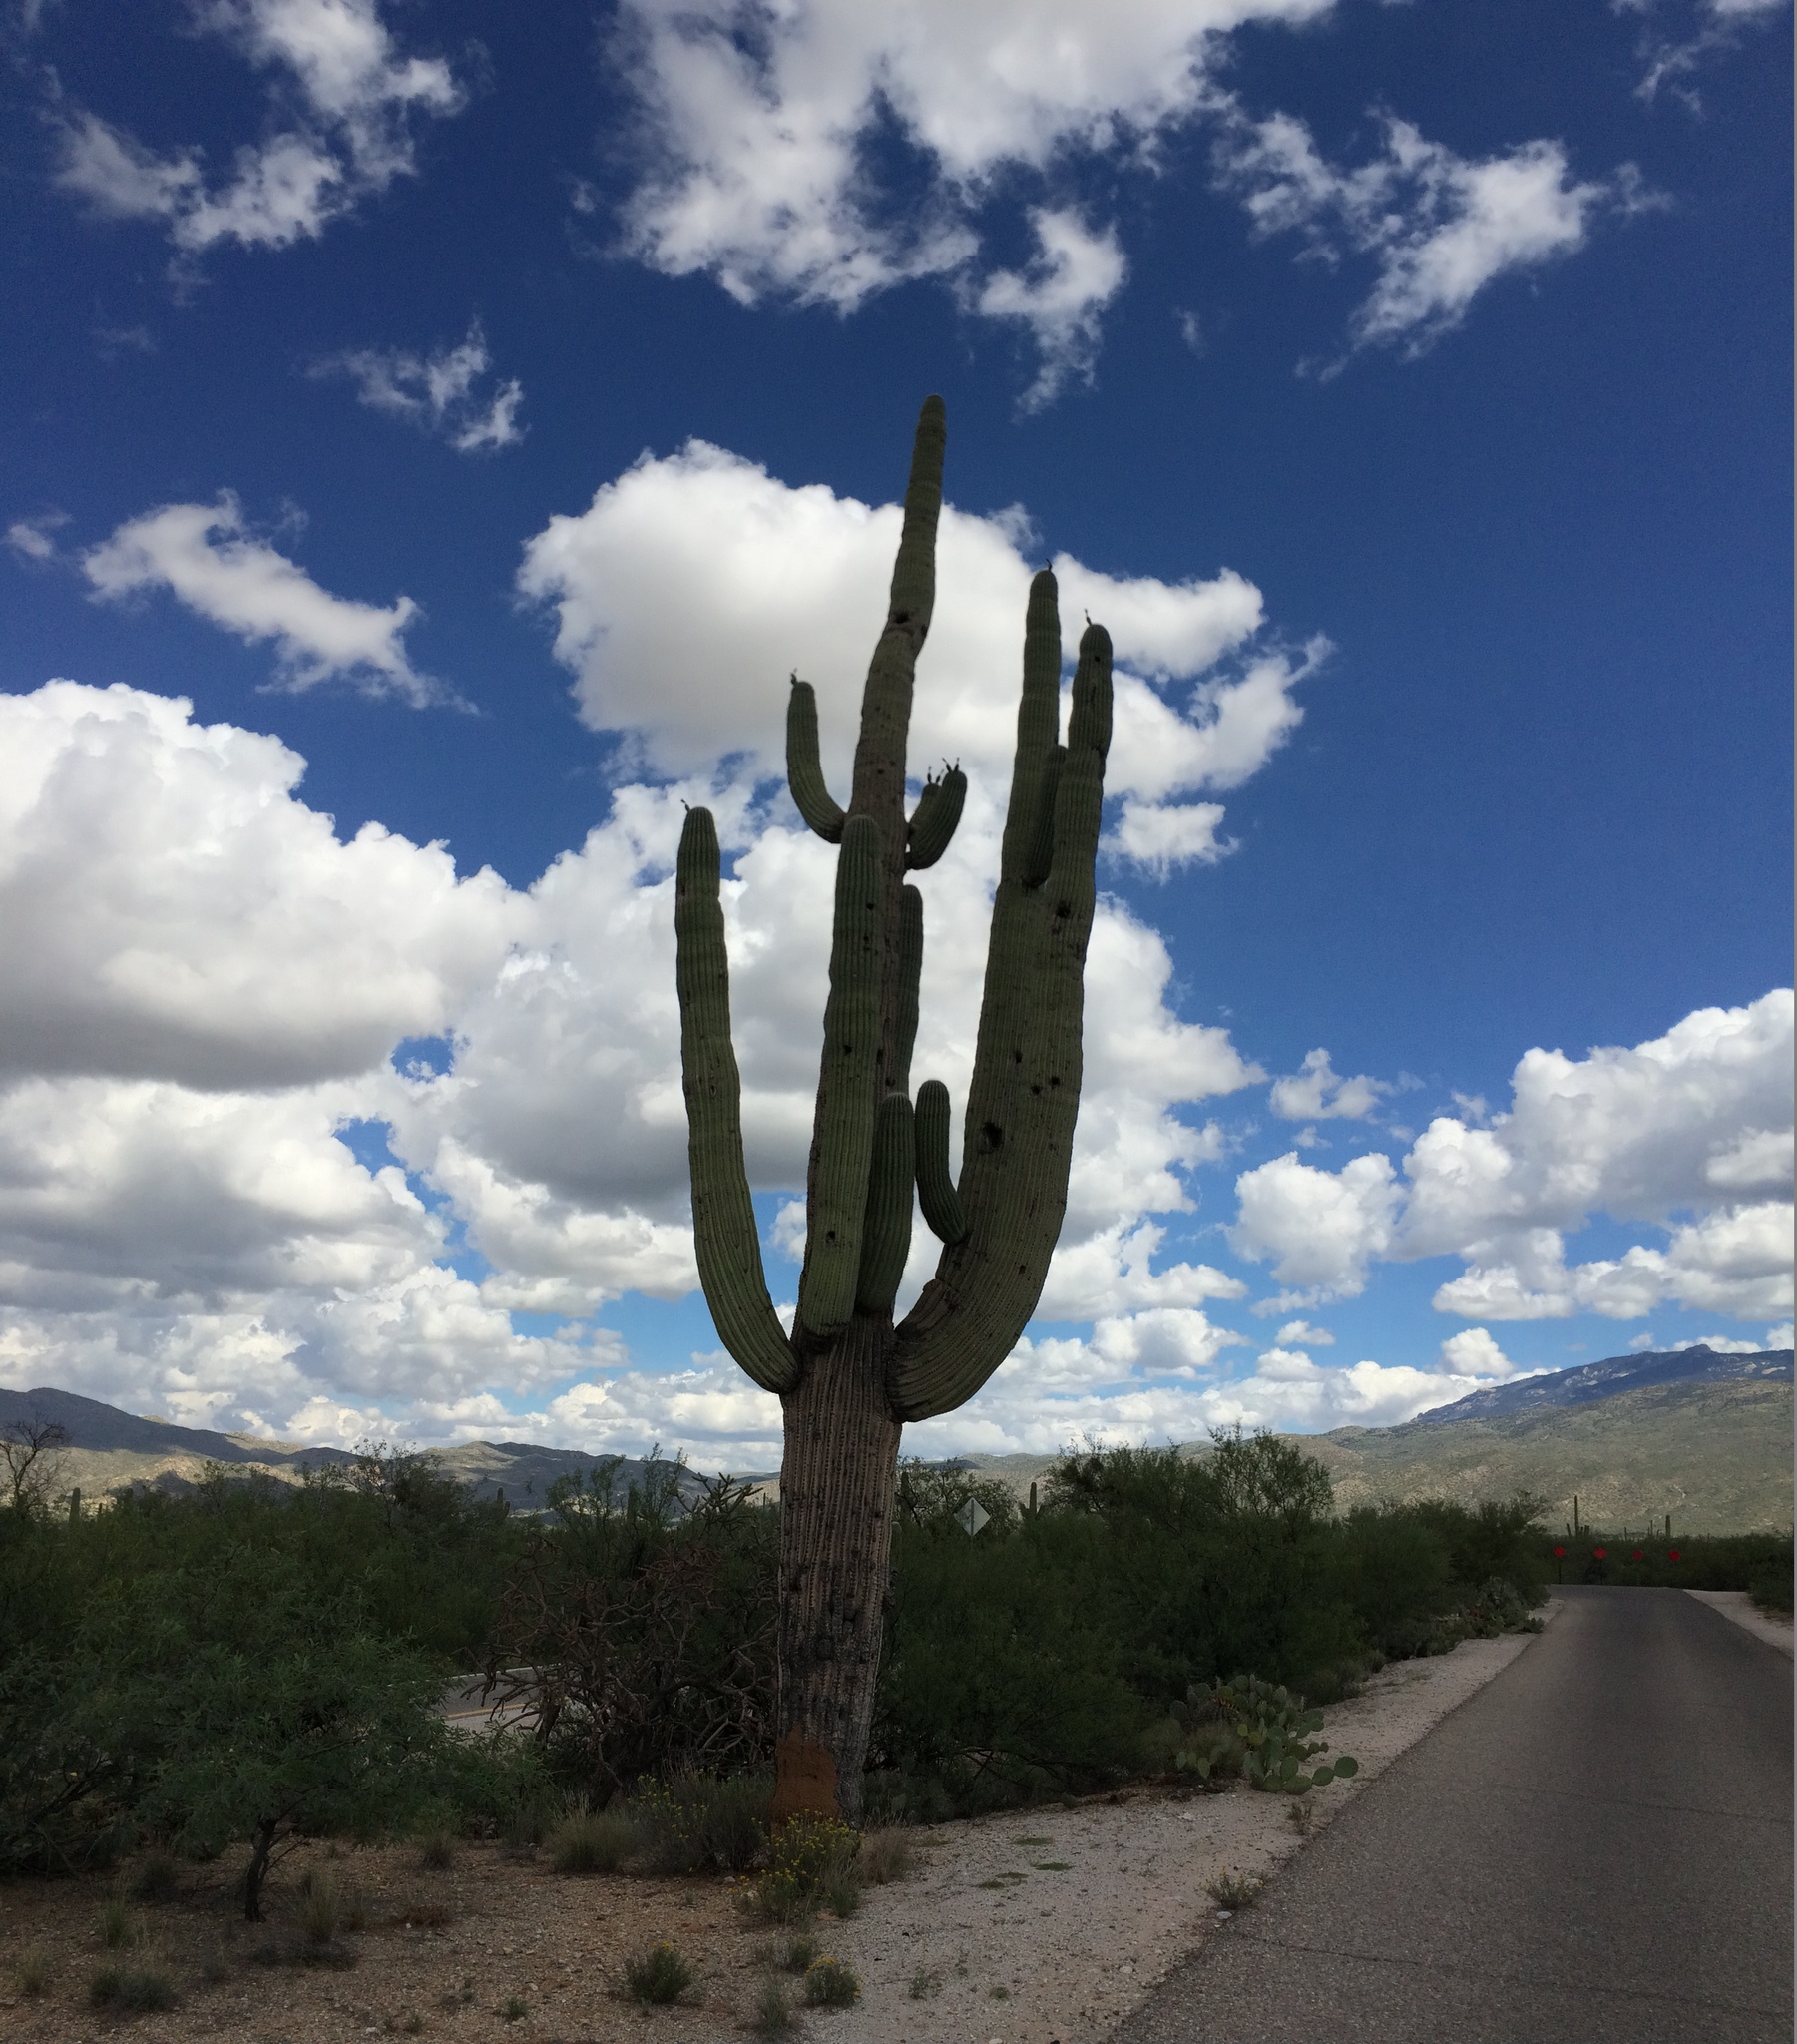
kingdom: Plantae
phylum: Tracheophyta
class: Magnoliopsida
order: Caryophyllales
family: Cactaceae
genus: Carnegiea
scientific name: Carnegiea gigantea
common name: Saguaro
